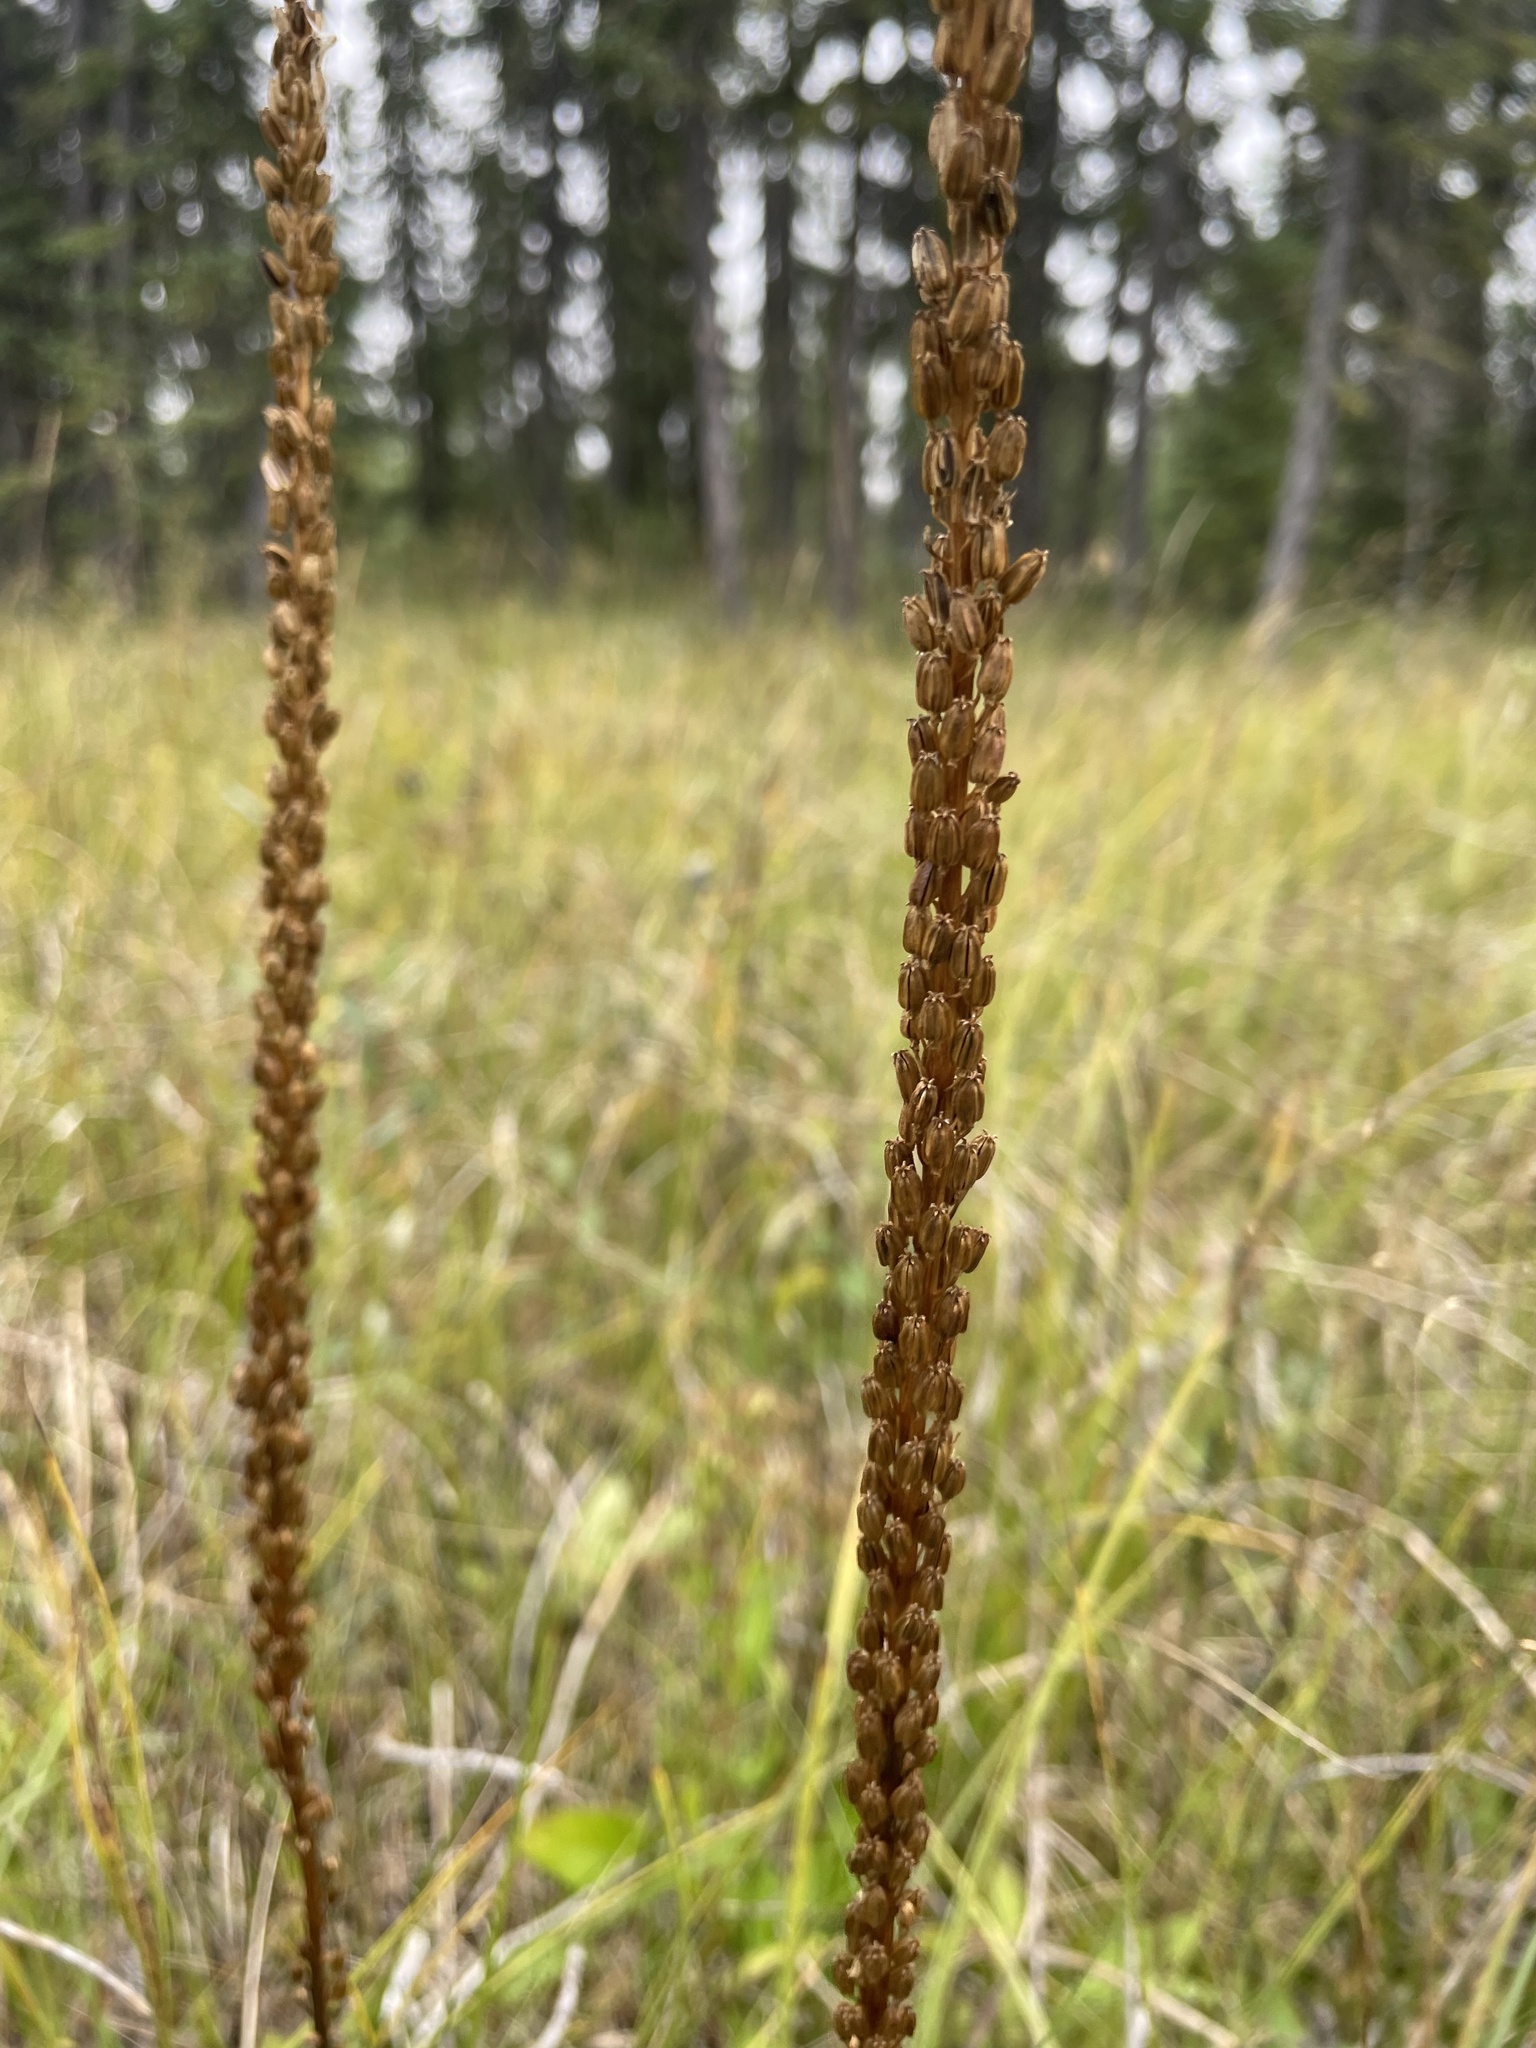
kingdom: Plantae
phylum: Tracheophyta
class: Liliopsida
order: Alismatales
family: Juncaginaceae
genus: Triglochin
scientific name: Triglochin maritima
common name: Sea arrowgrass
